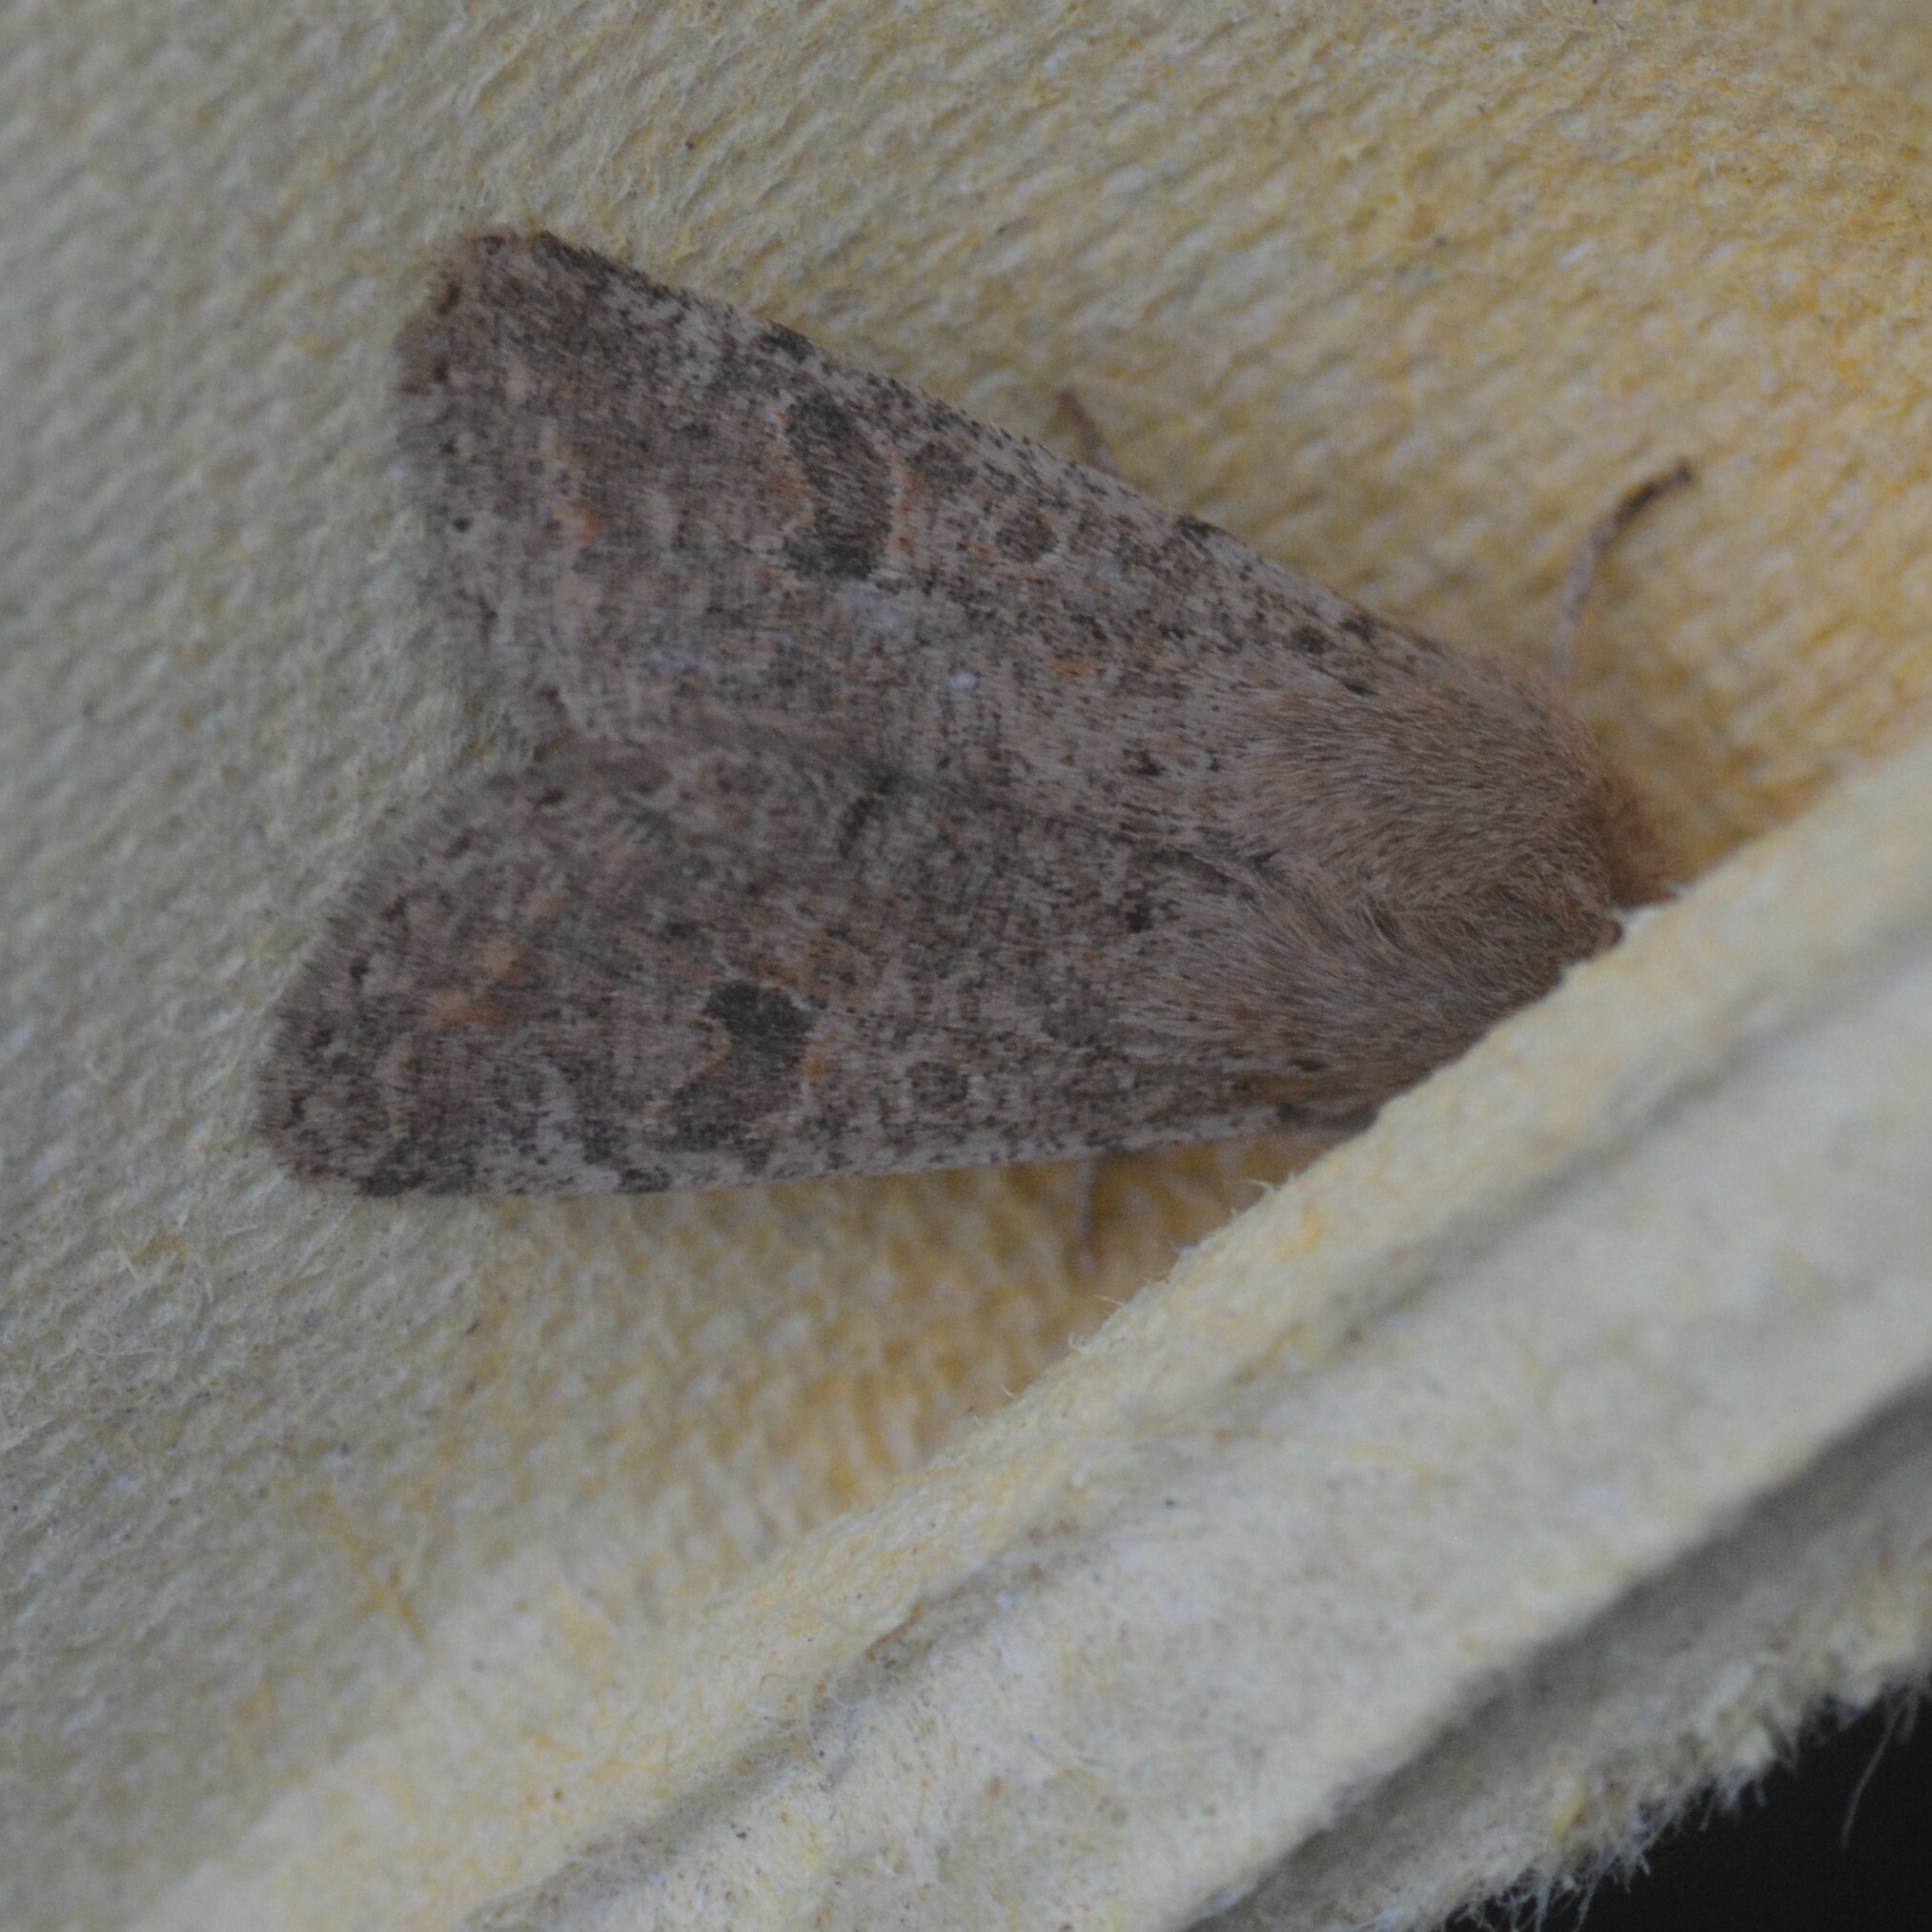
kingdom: Animalia
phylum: Arthropoda
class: Insecta
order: Lepidoptera
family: Noctuidae
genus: Orthosia
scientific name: Orthosia cruda
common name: Small quaker
